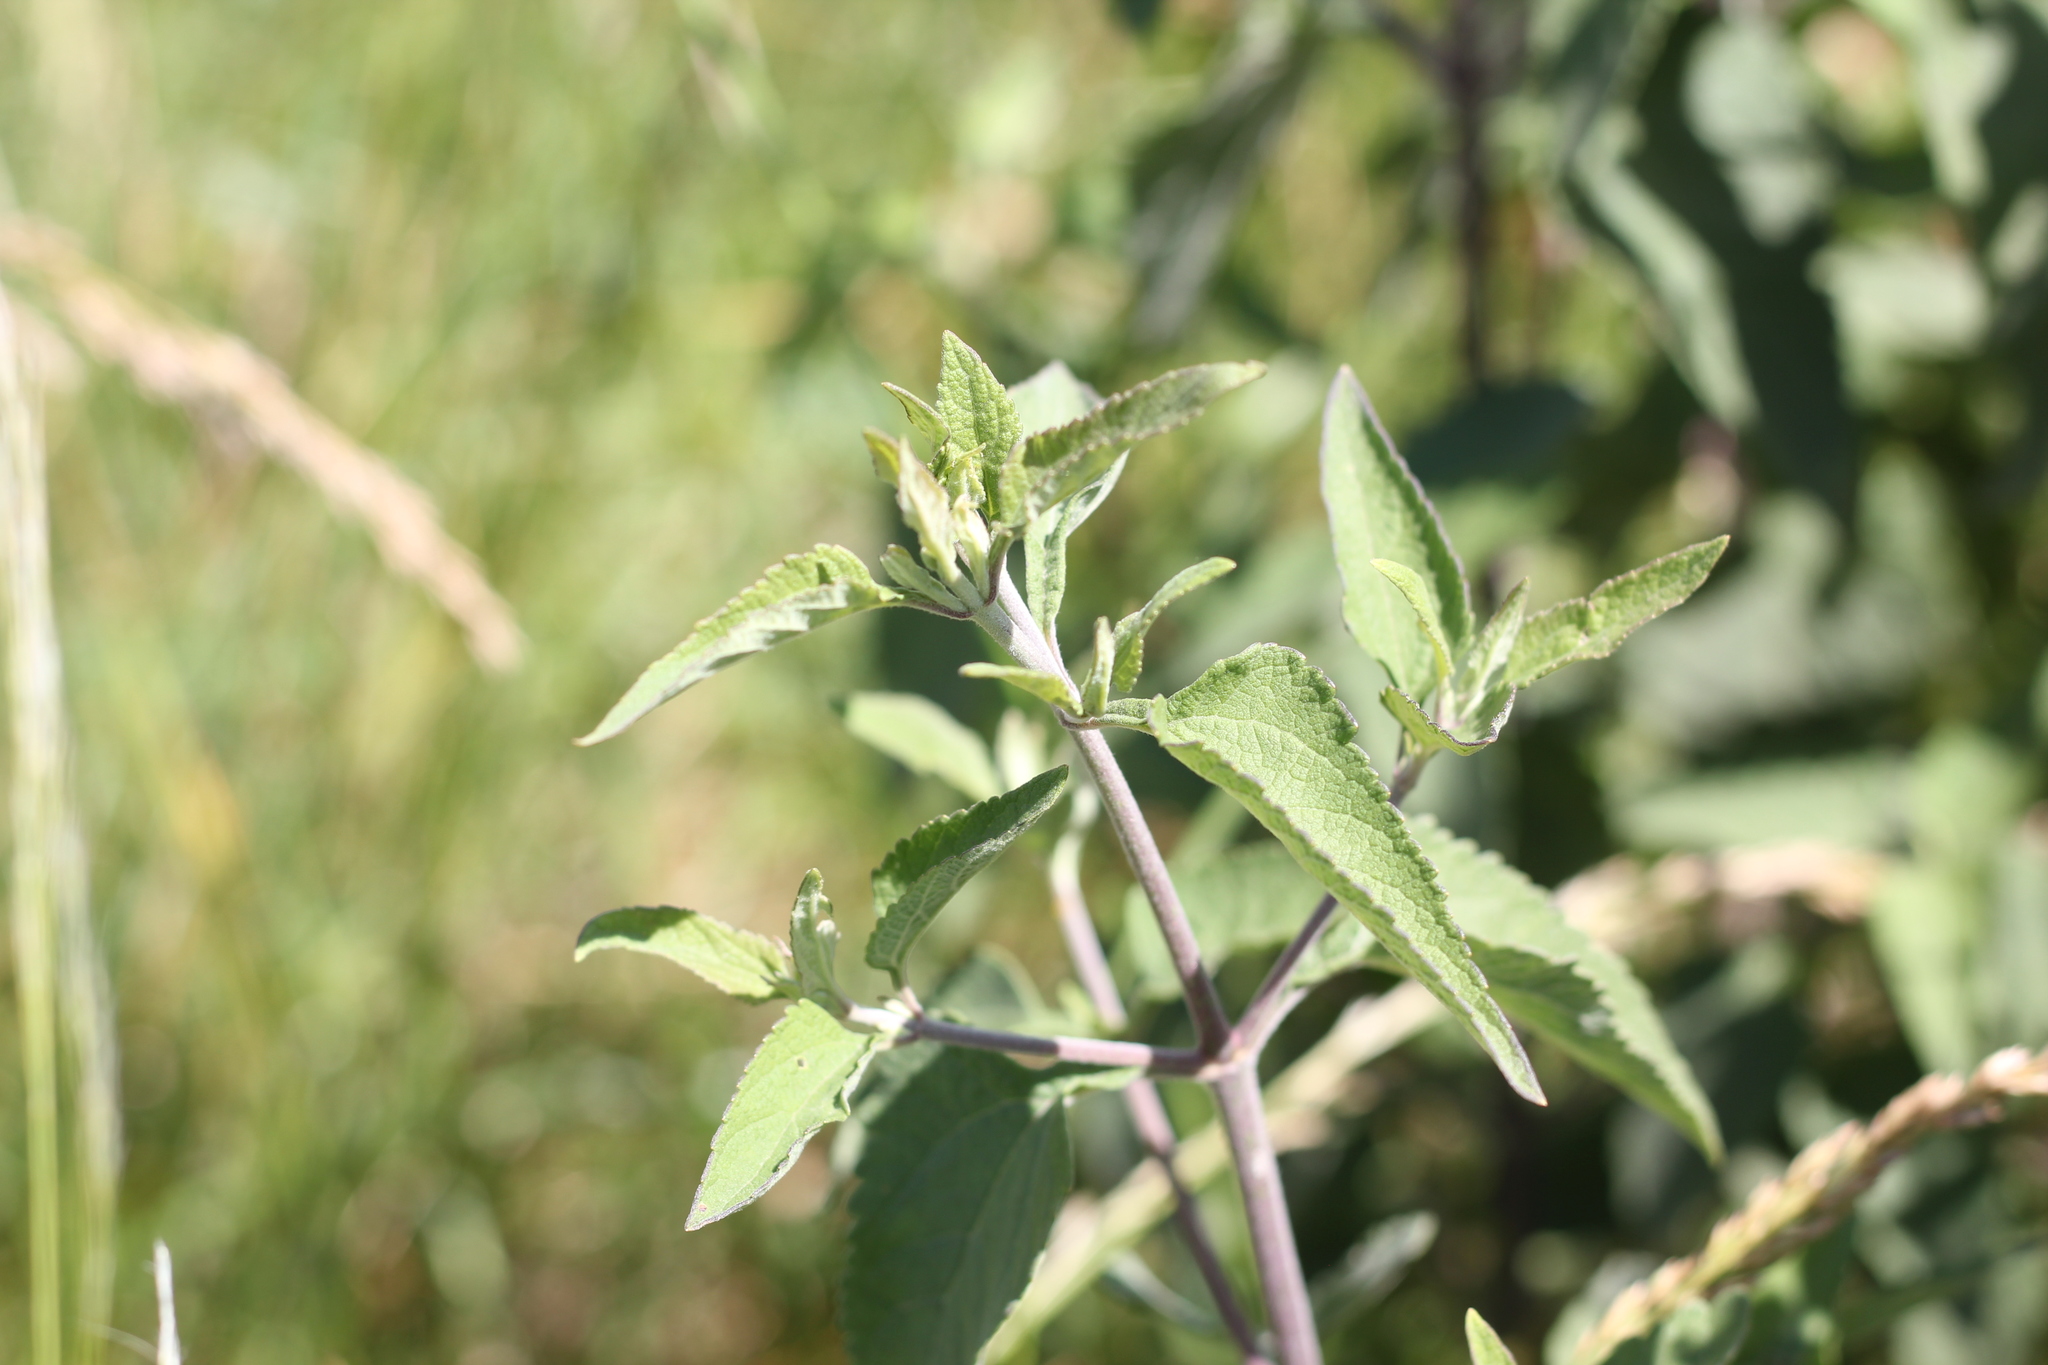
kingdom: Plantae
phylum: Tracheophyta
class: Magnoliopsida
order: Asterales
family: Asteraceae
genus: Austroeupatorium
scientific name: Austroeupatorium inulifolium
